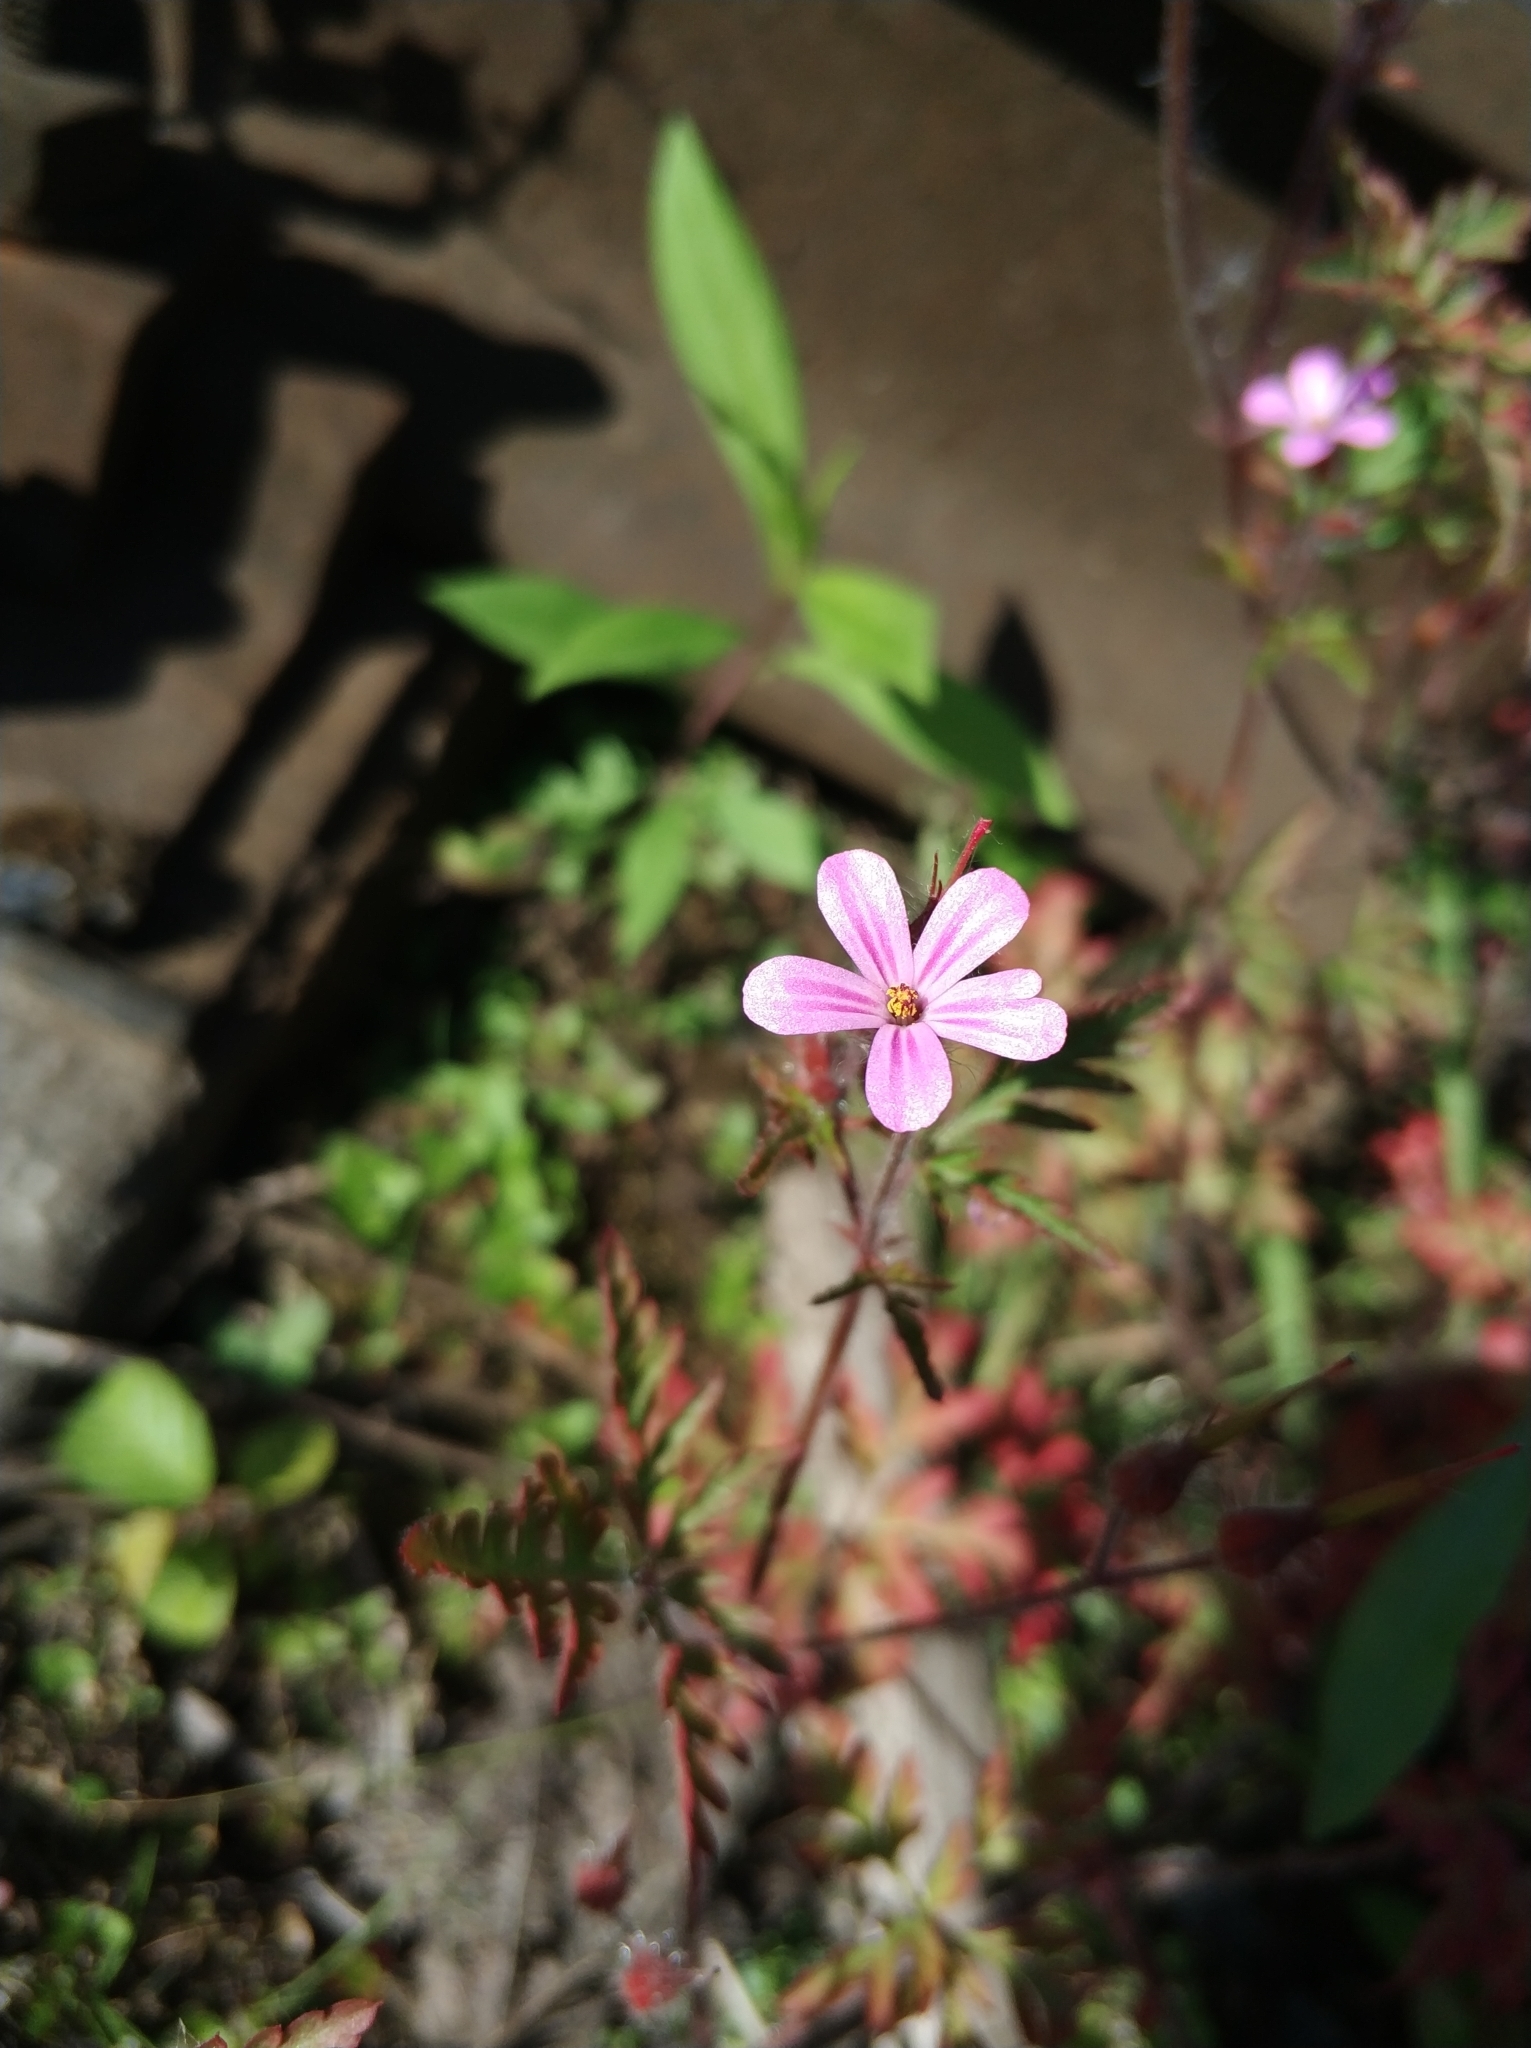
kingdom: Plantae
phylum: Tracheophyta
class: Magnoliopsida
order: Geraniales
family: Geraniaceae
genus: Geranium
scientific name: Geranium robertianum
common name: Herb-robert
